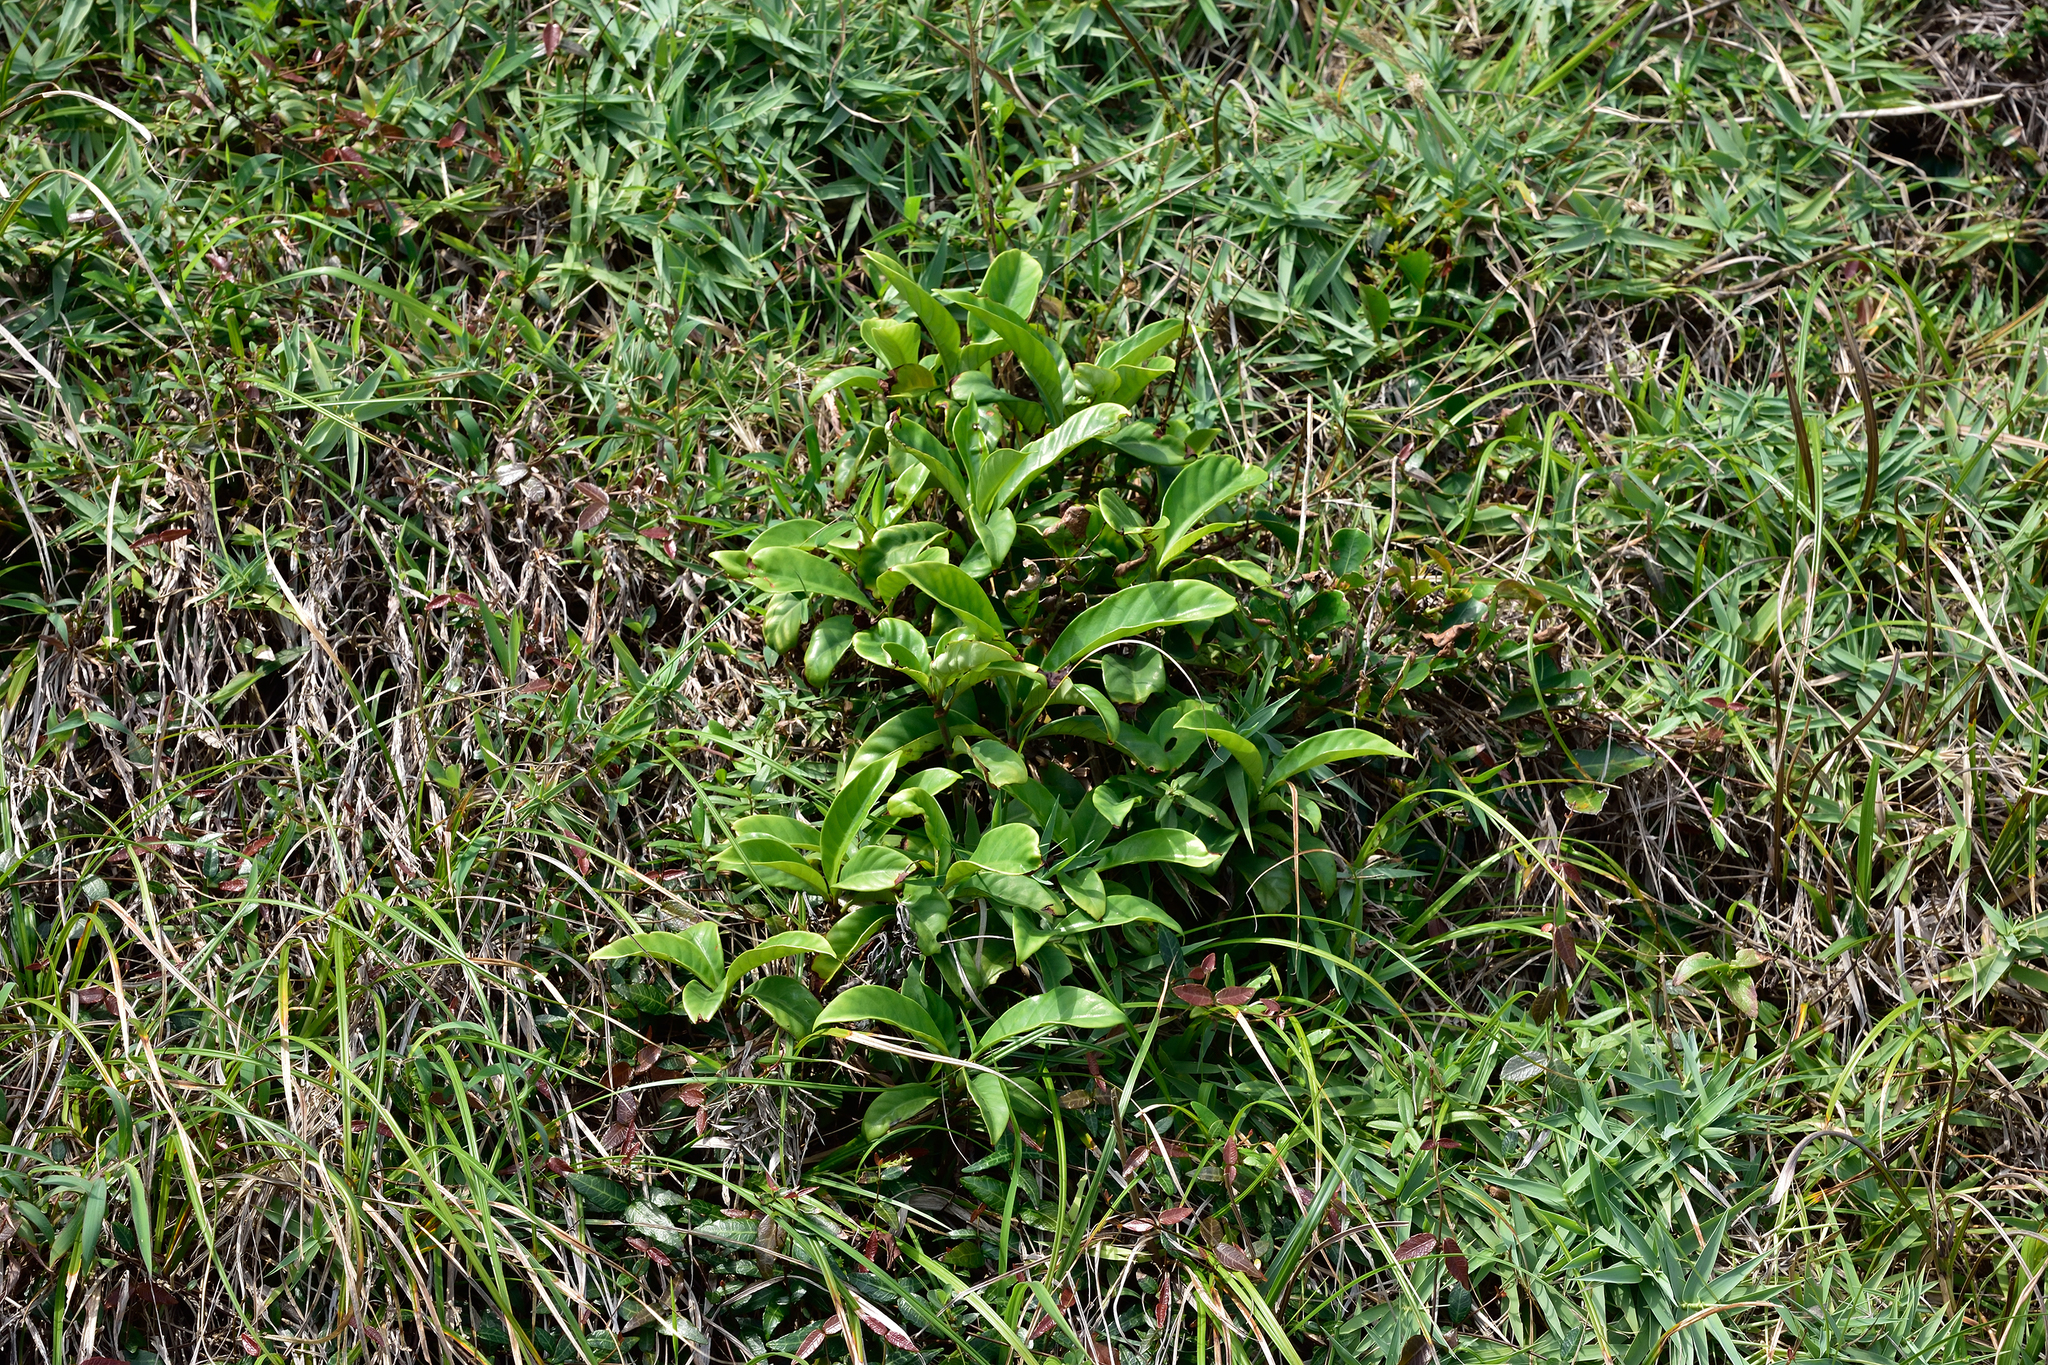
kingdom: Plantae
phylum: Tracheophyta
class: Magnoliopsida
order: Gentianales
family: Rubiaceae
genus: Psychotria
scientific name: Psychotria asiatica
